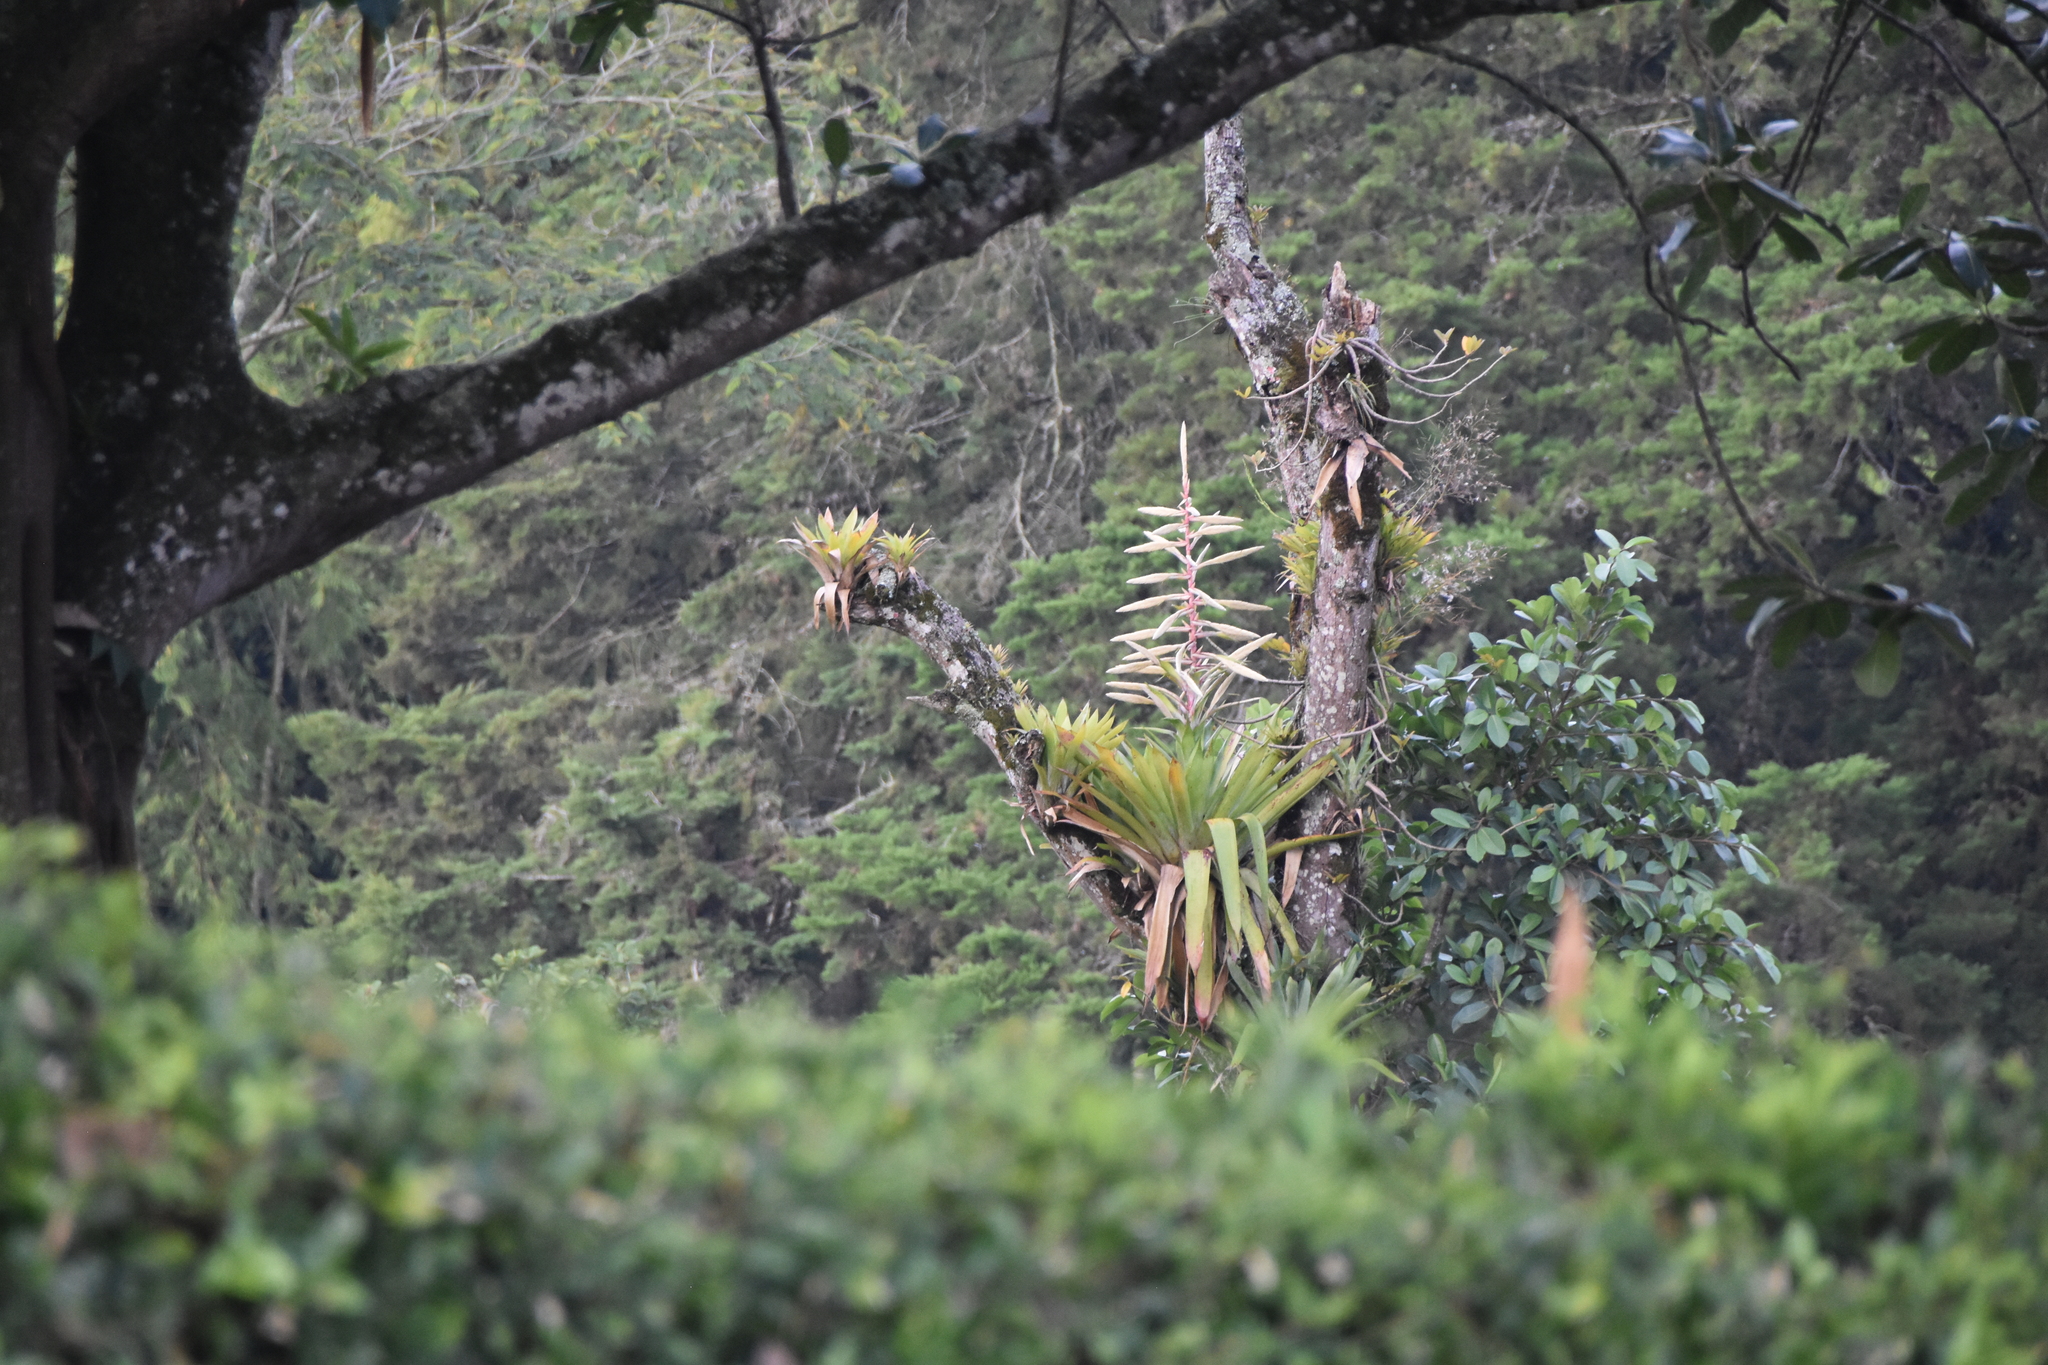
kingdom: Plantae
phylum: Tracheophyta
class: Liliopsida
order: Poales
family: Bromeliaceae
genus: Tillandsia
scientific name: Tillandsia fendleri
